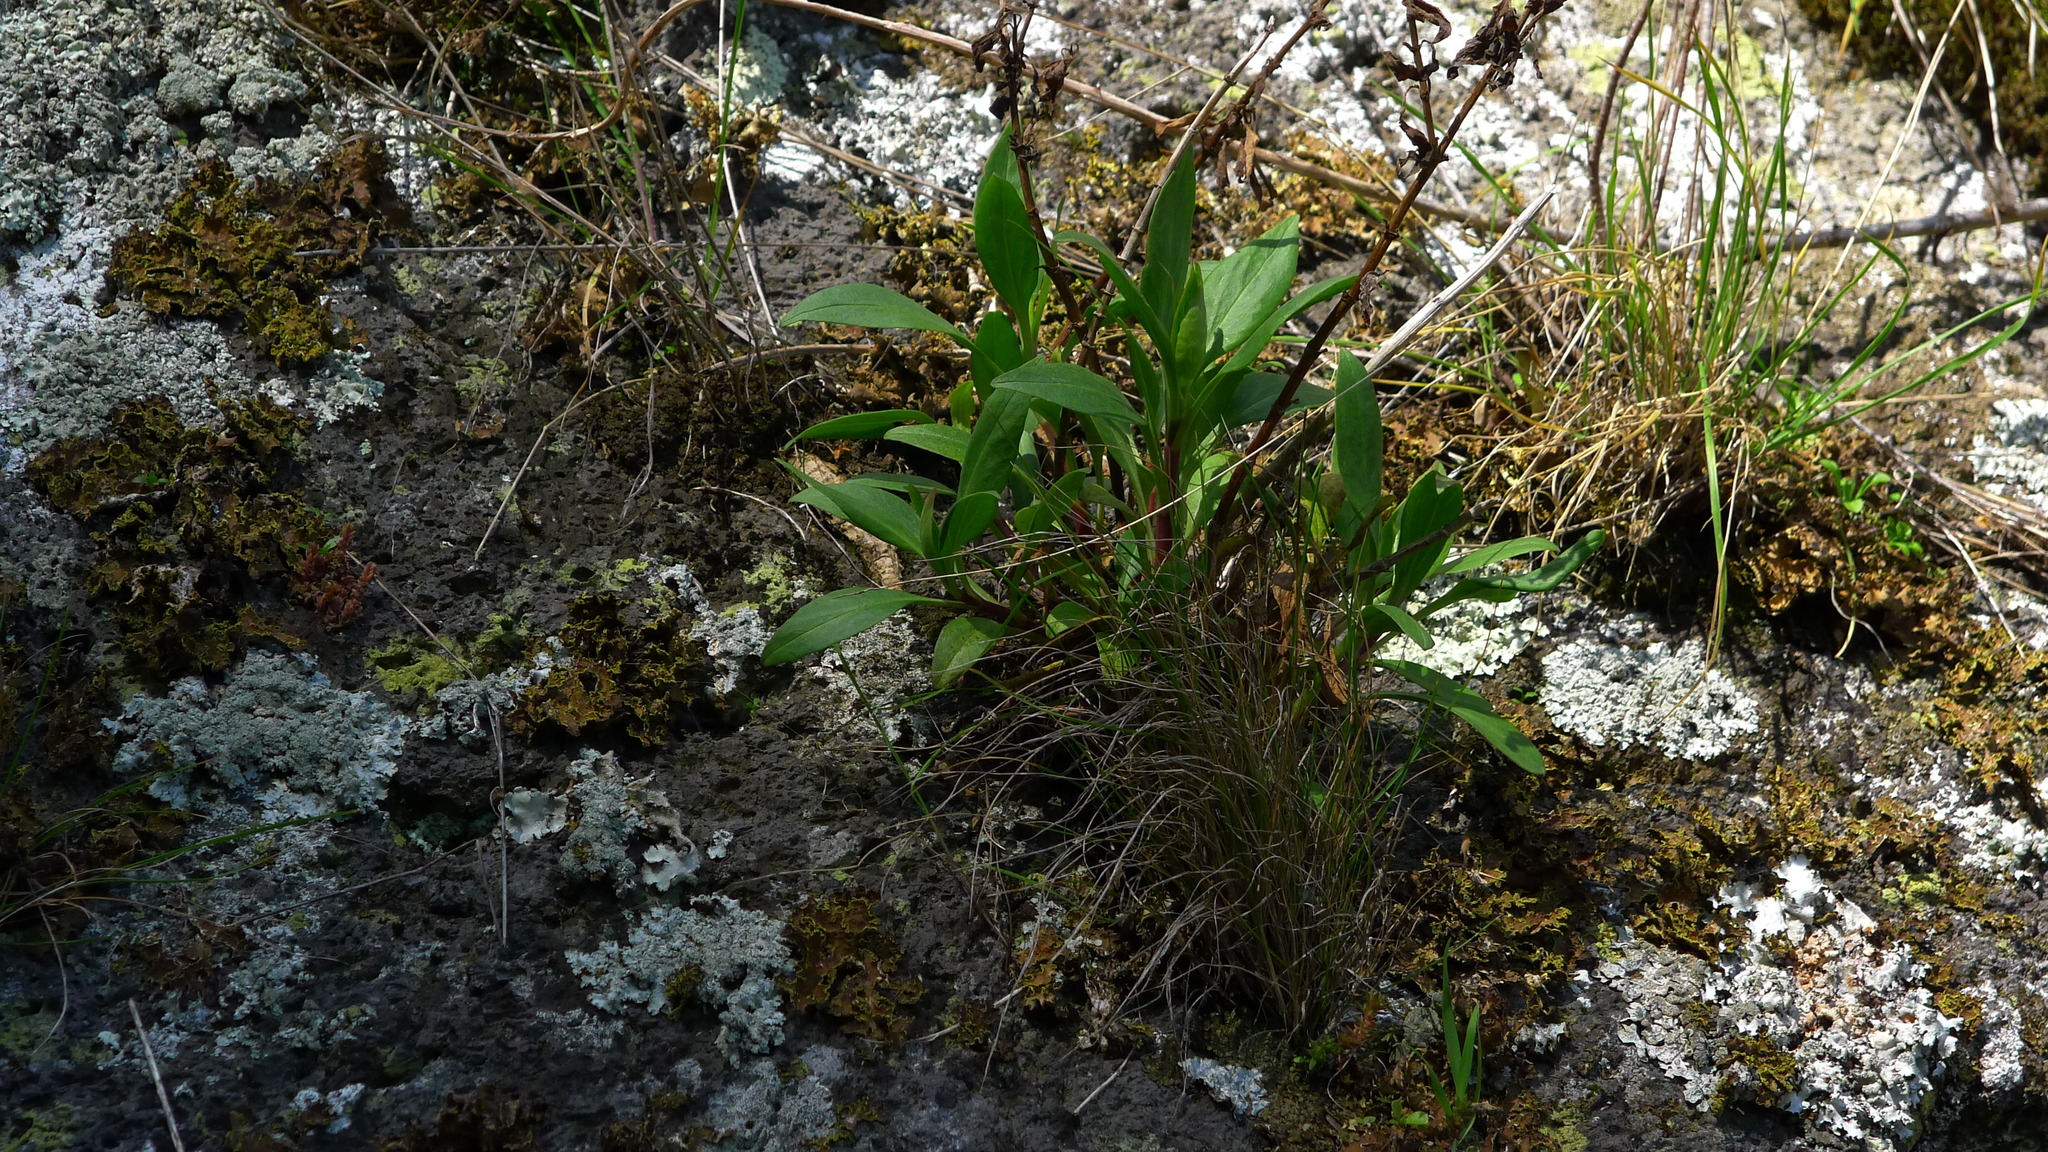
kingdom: Plantae
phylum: Tracheophyta
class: Magnoliopsida
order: Dipsacales
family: Caprifoliaceae
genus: Centranthus
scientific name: Centranthus ruber
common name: Red valerian
